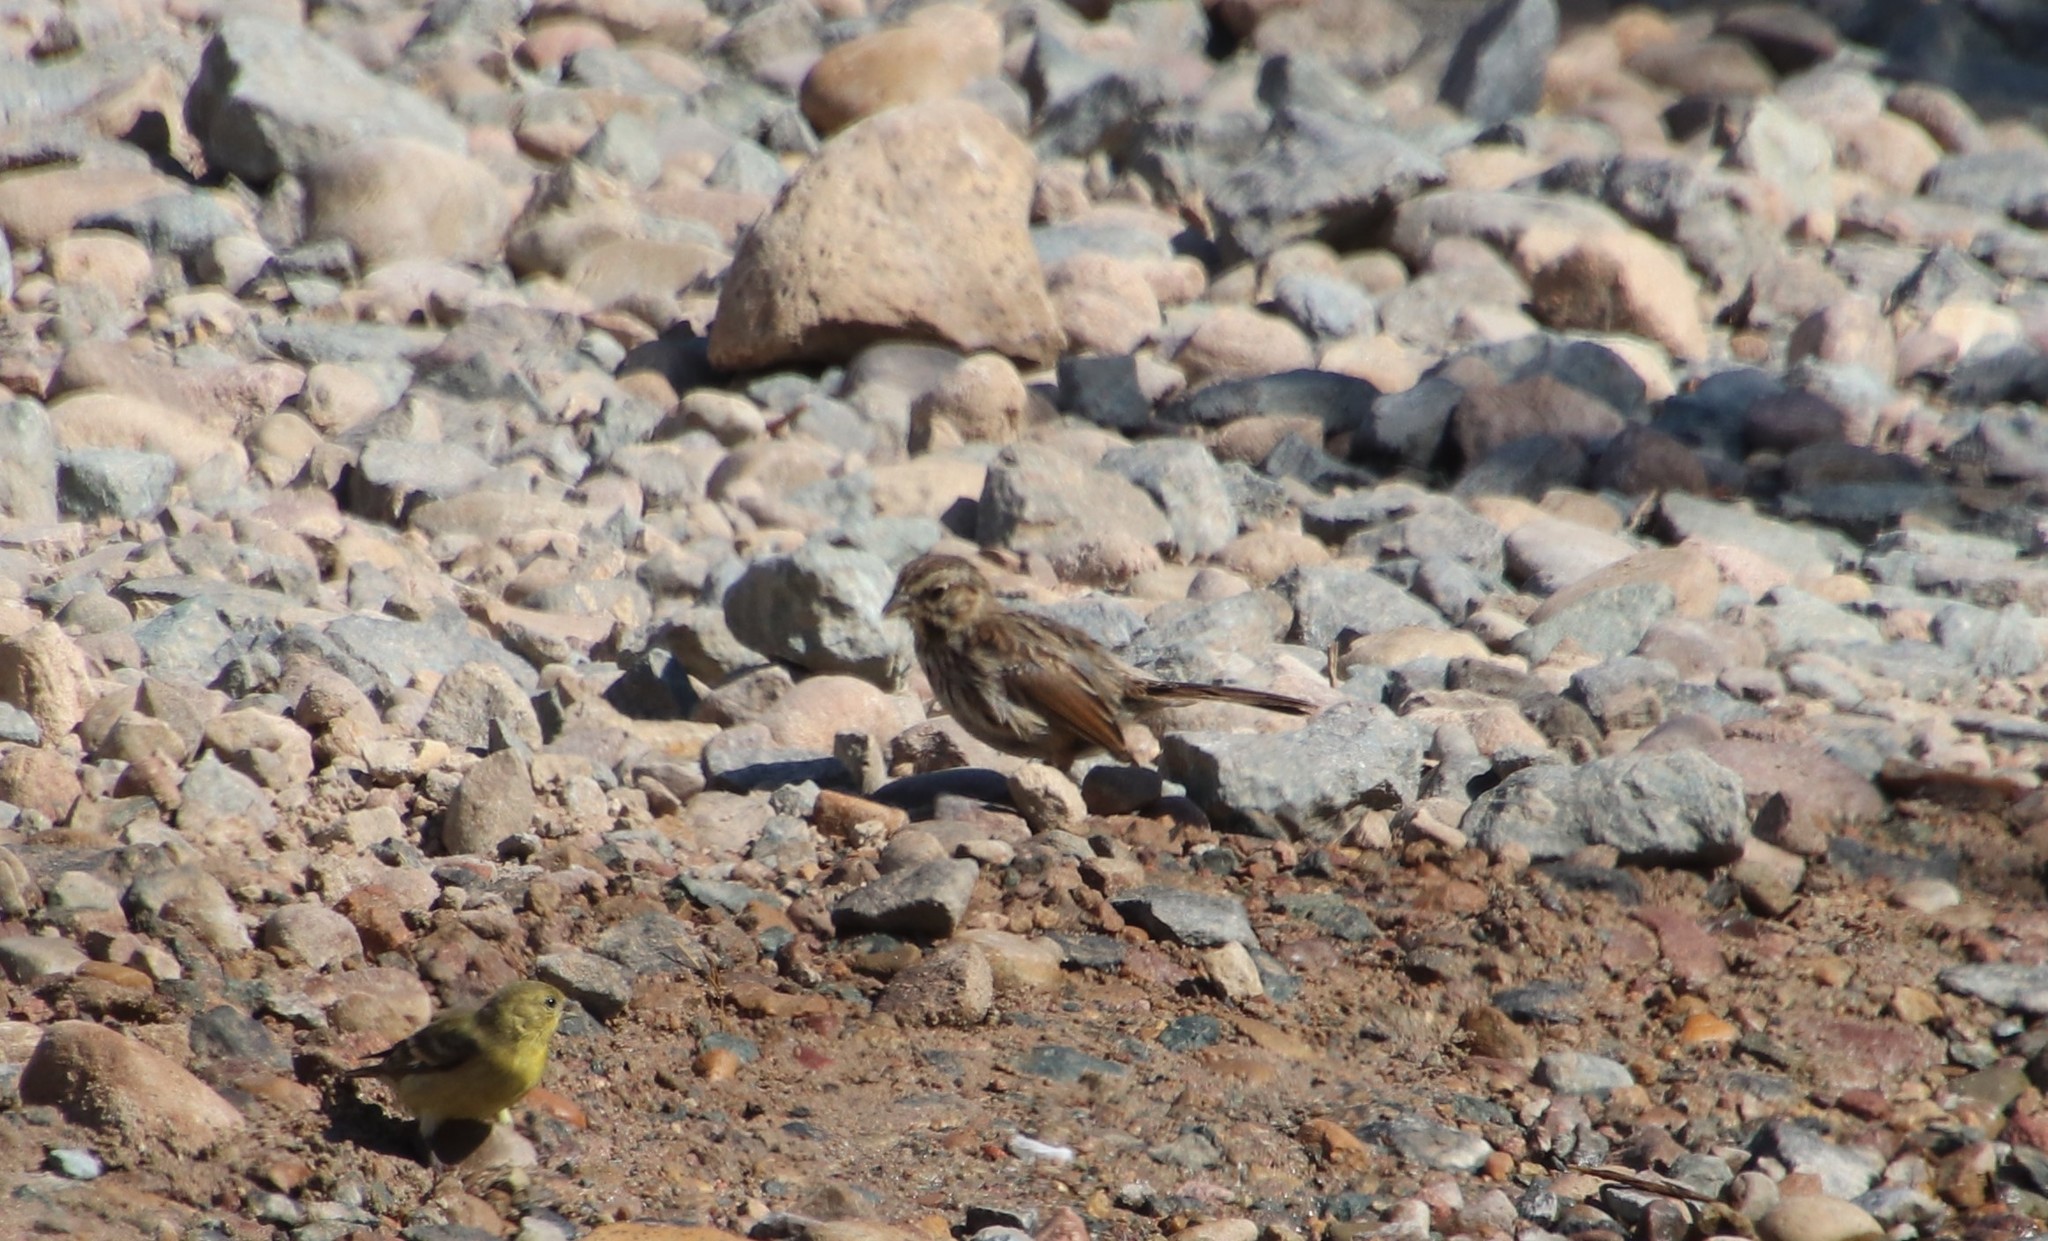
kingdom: Animalia
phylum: Chordata
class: Aves
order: Passeriformes
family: Passerellidae
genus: Melospiza
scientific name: Melospiza melodia
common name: Song sparrow
